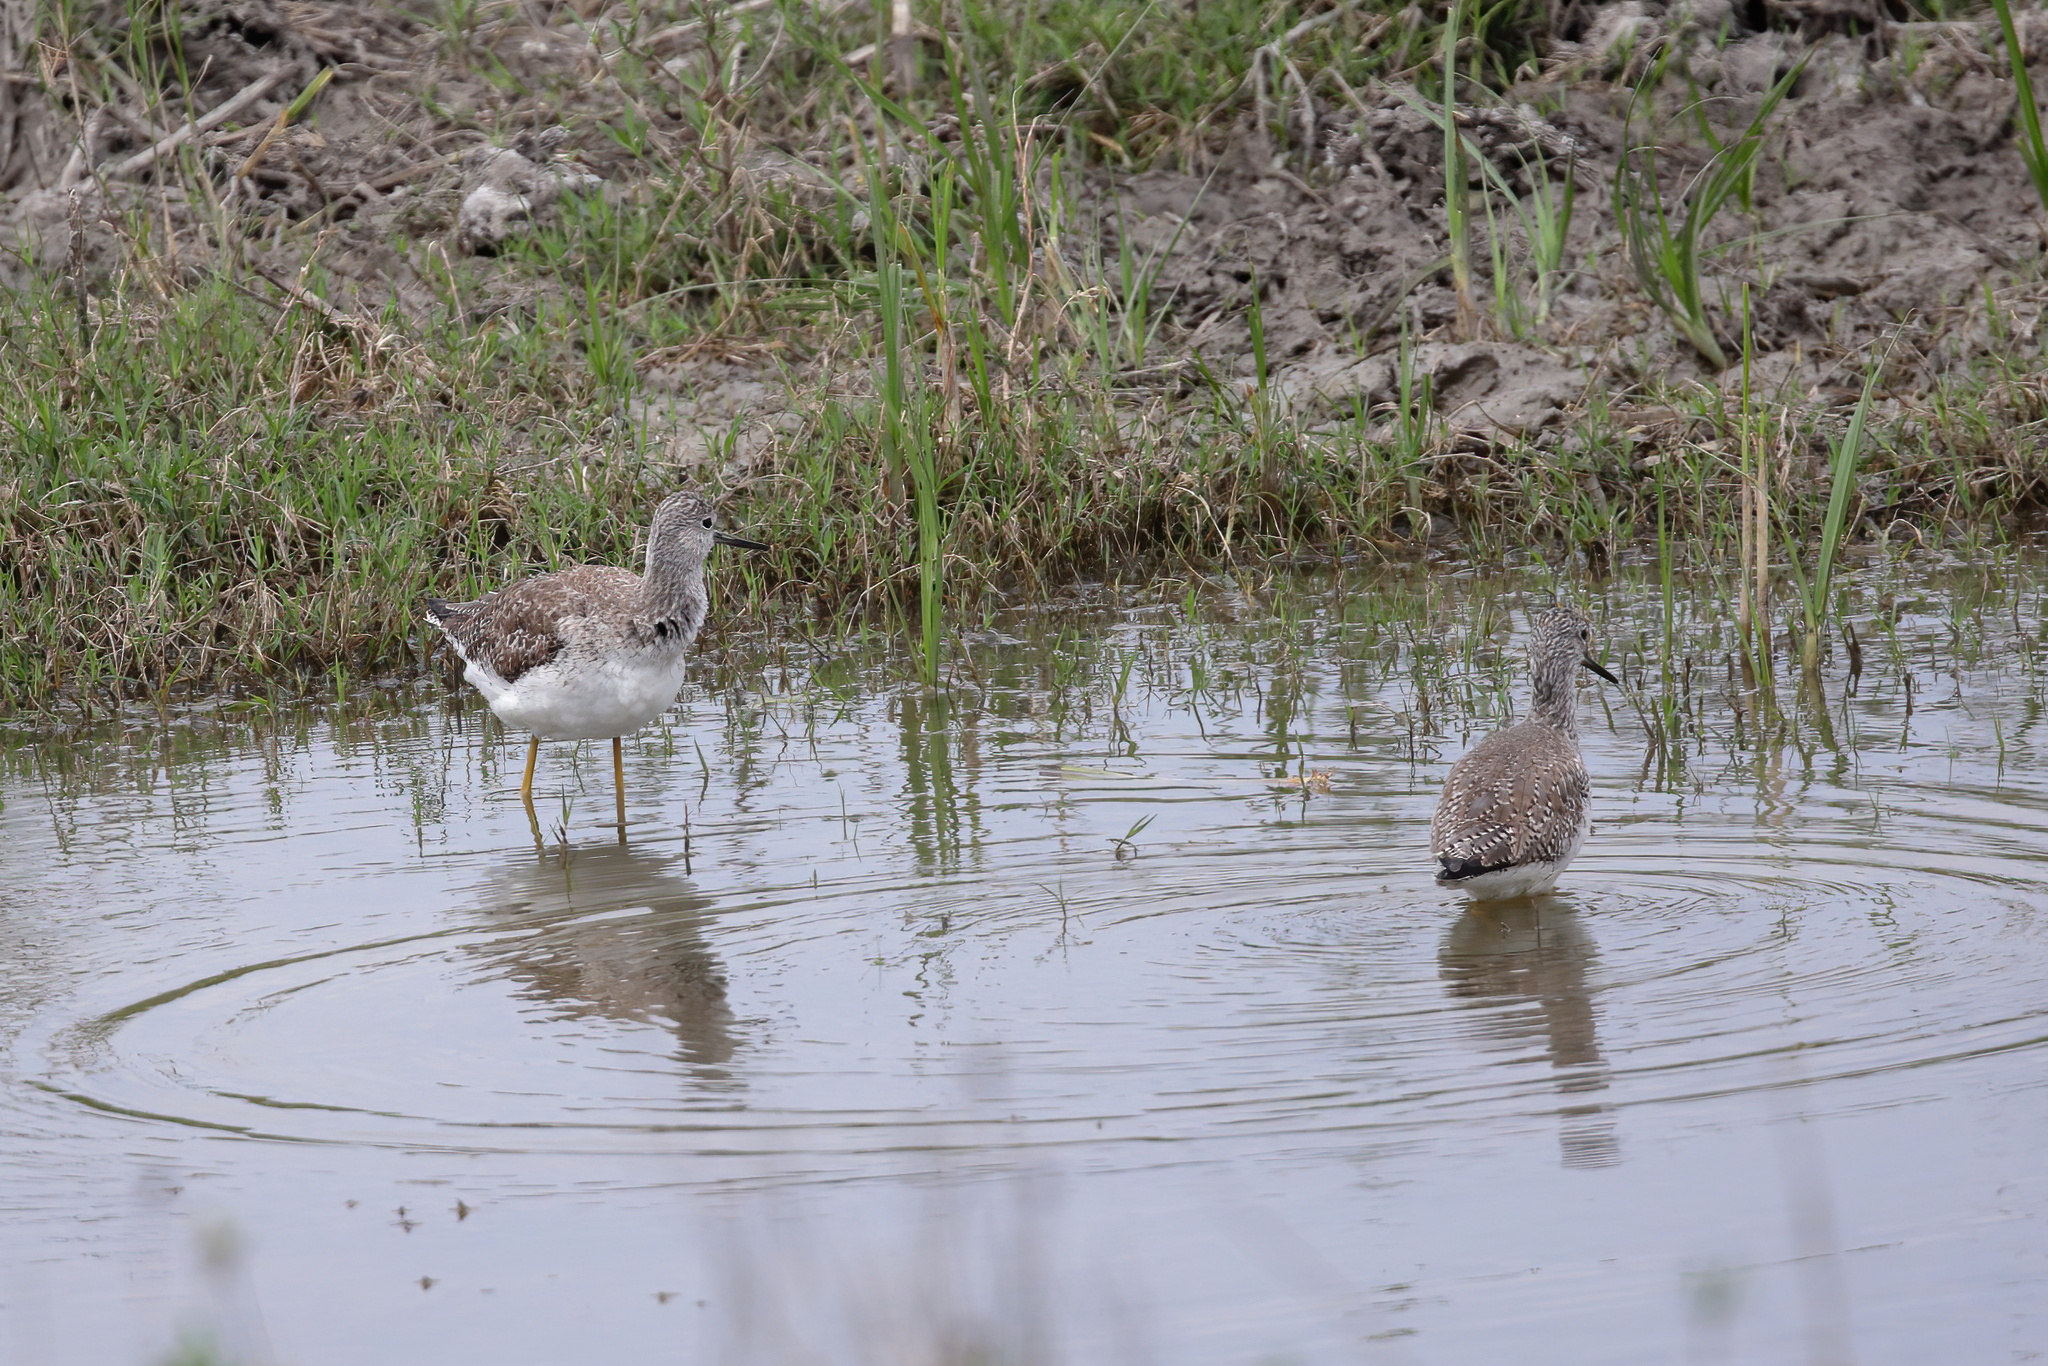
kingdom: Animalia
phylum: Chordata
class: Aves
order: Charadriiformes
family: Scolopacidae
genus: Tringa
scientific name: Tringa melanoleuca
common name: Greater yellowlegs
